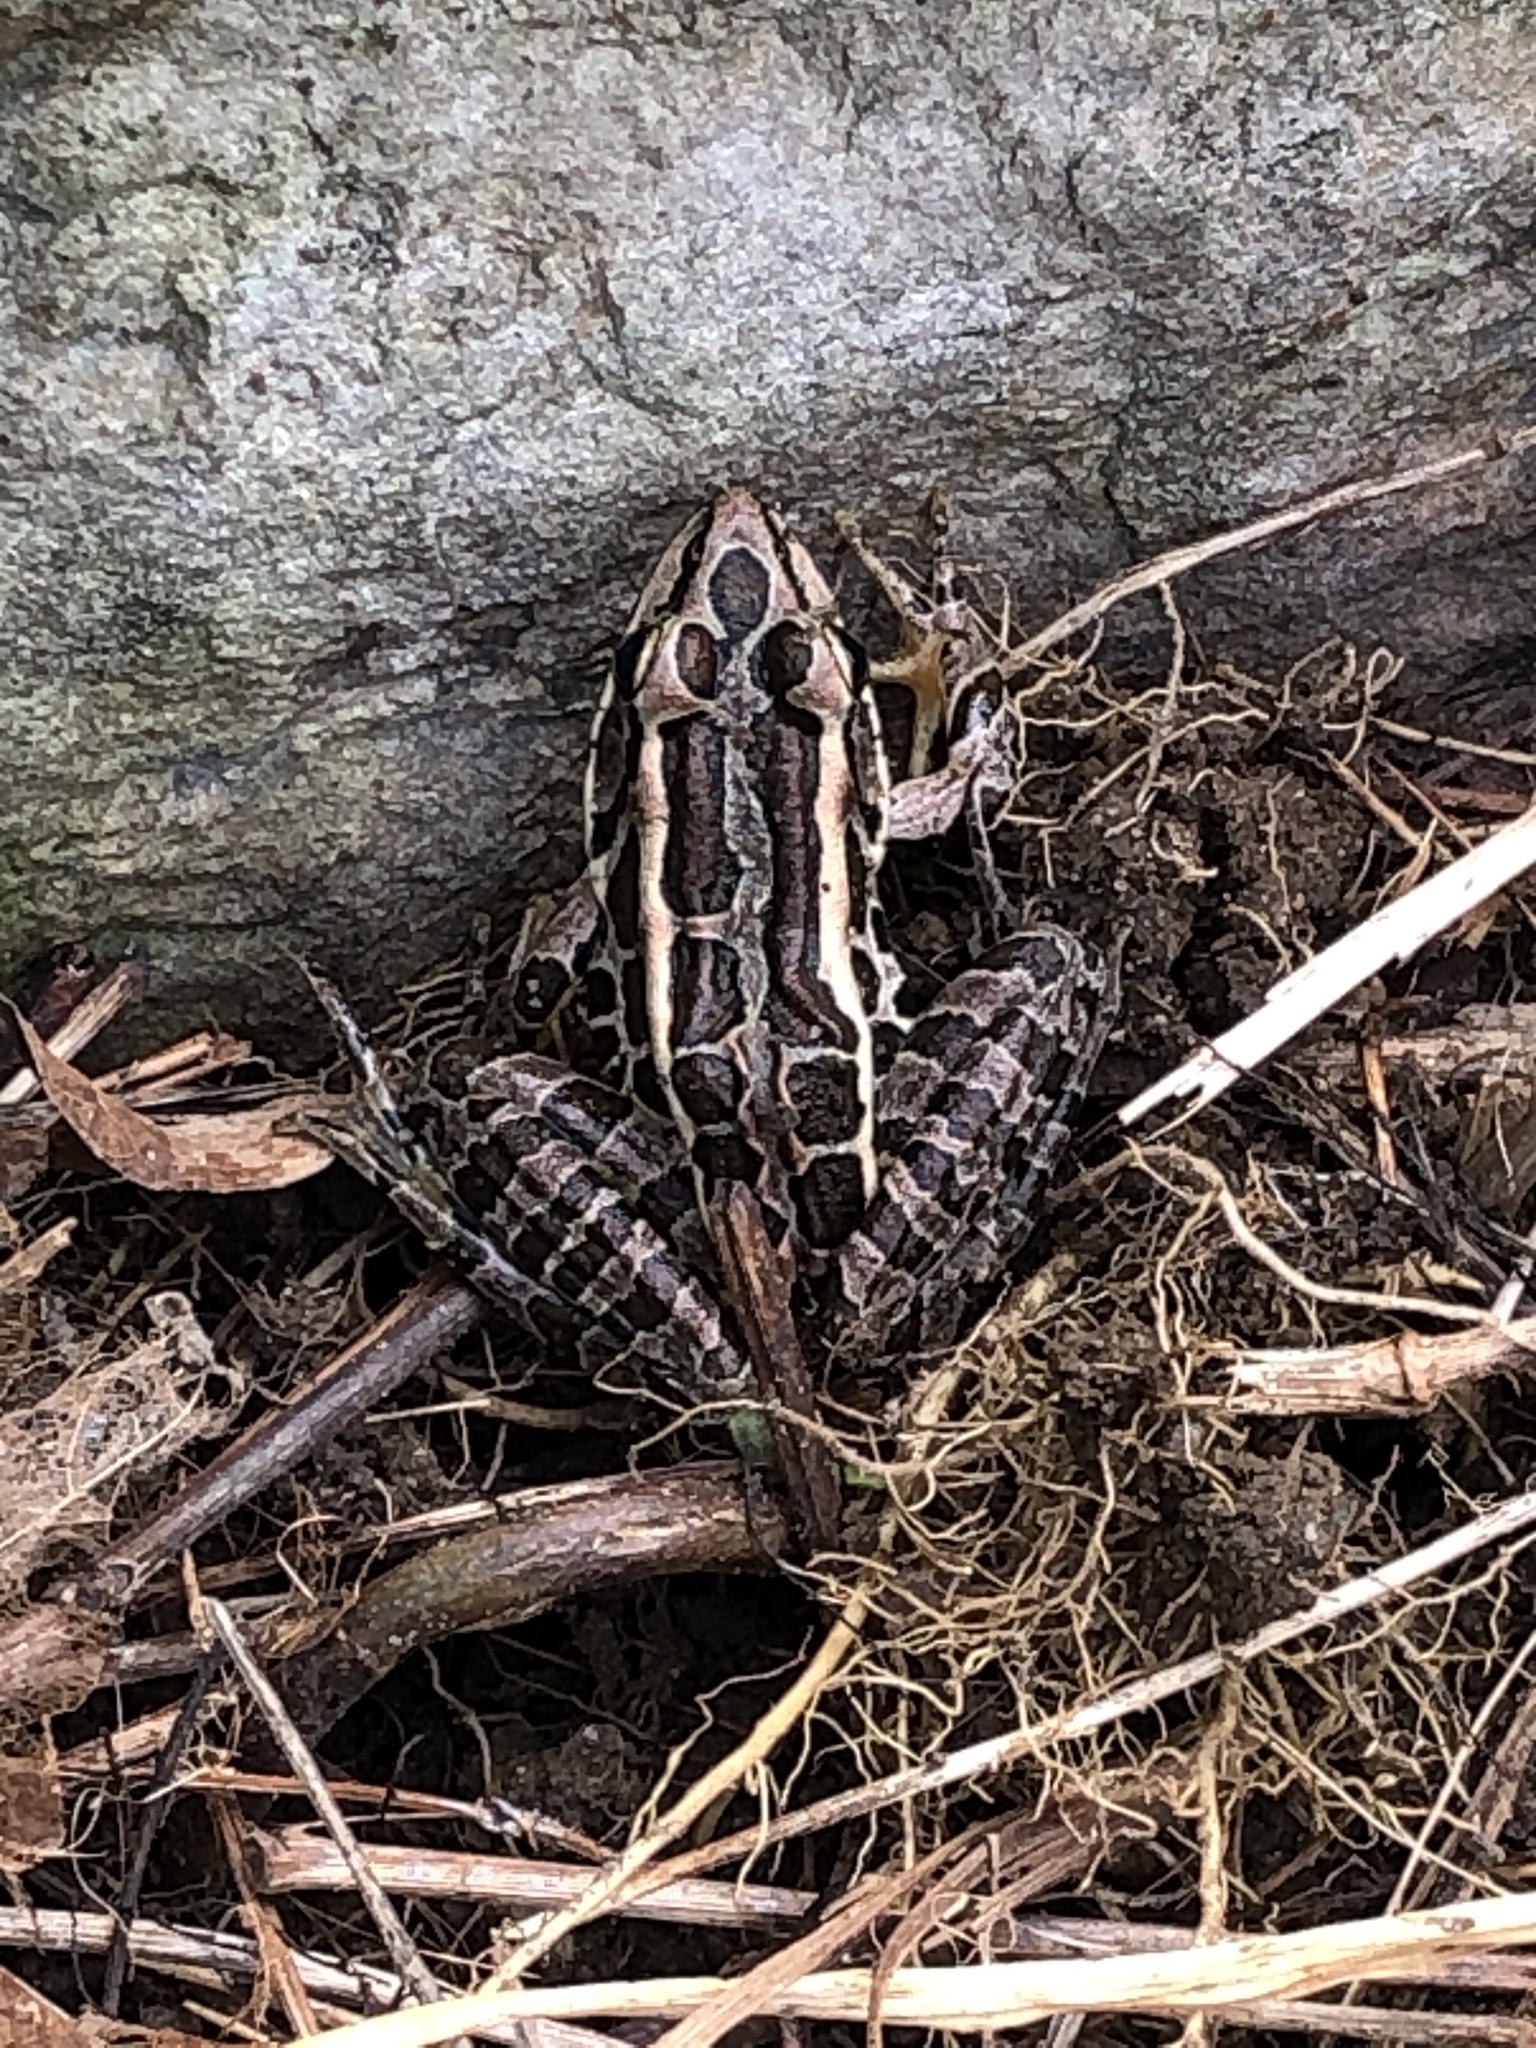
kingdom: Animalia
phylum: Chordata
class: Amphibia
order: Anura
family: Ranidae
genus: Lithobates
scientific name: Lithobates palustris
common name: Pickerel frog
